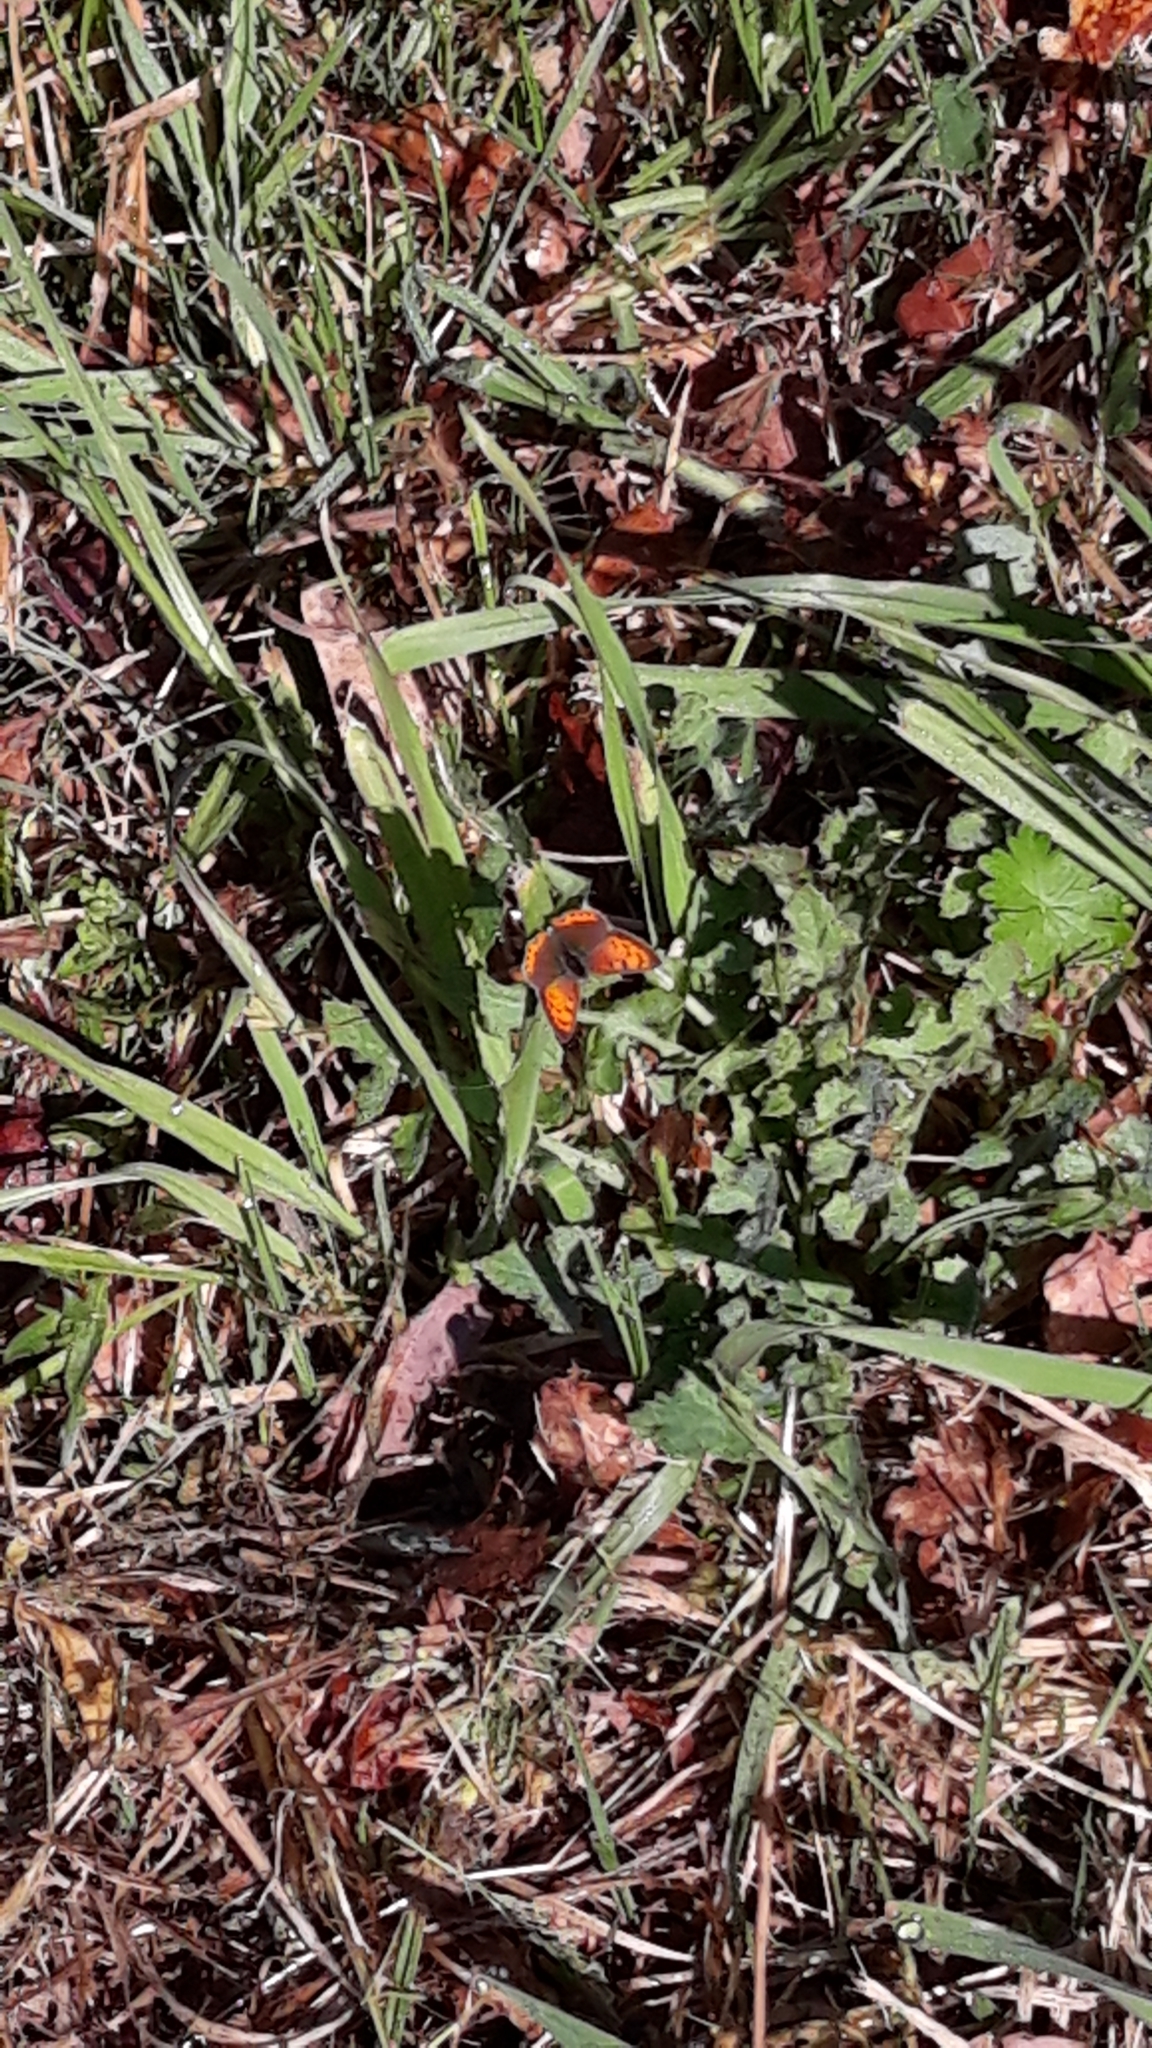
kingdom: Animalia
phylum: Arthropoda
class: Insecta
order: Lepidoptera
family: Lycaenidae
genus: Lycaena
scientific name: Lycaena phlaeas
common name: Small copper
